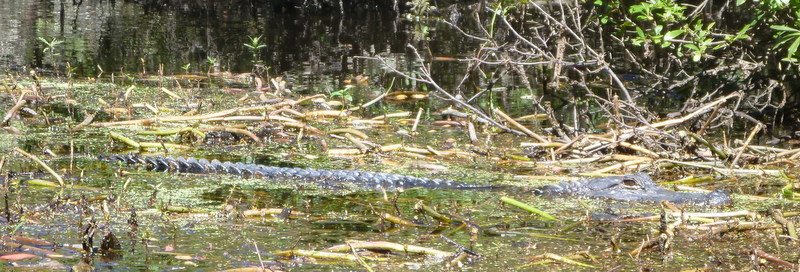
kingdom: Animalia
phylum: Chordata
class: Crocodylia
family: Alligatoridae
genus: Alligator
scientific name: Alligator mississippiensis
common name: American alligator
